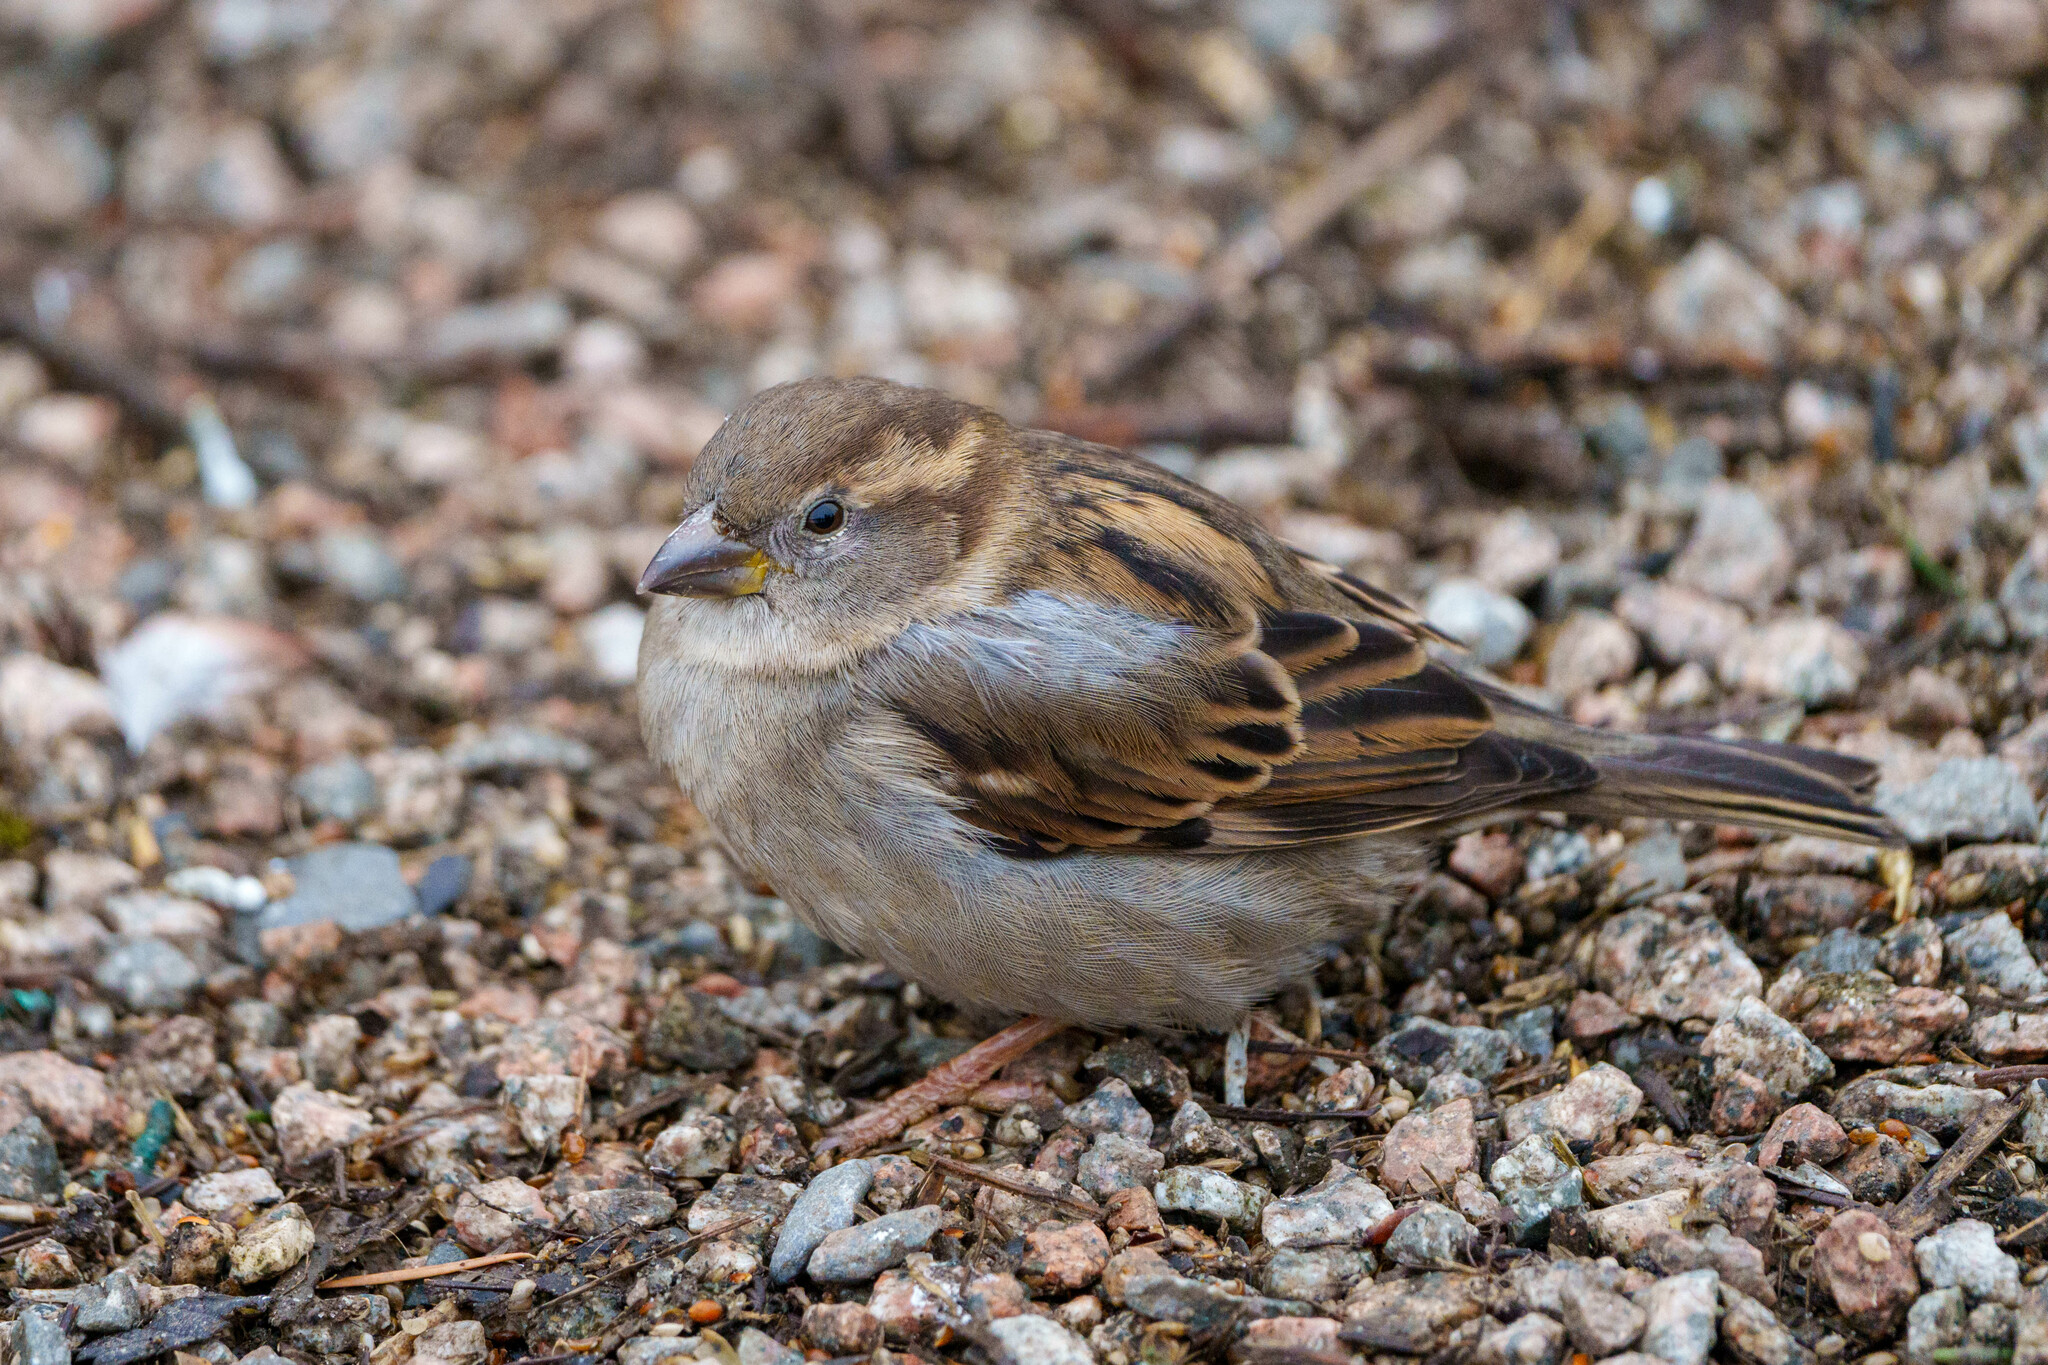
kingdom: Animalia
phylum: Chordata
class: Aves
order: Passeriformes
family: Passeridae
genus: Passer
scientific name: Passer domesticus
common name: House sparrow
